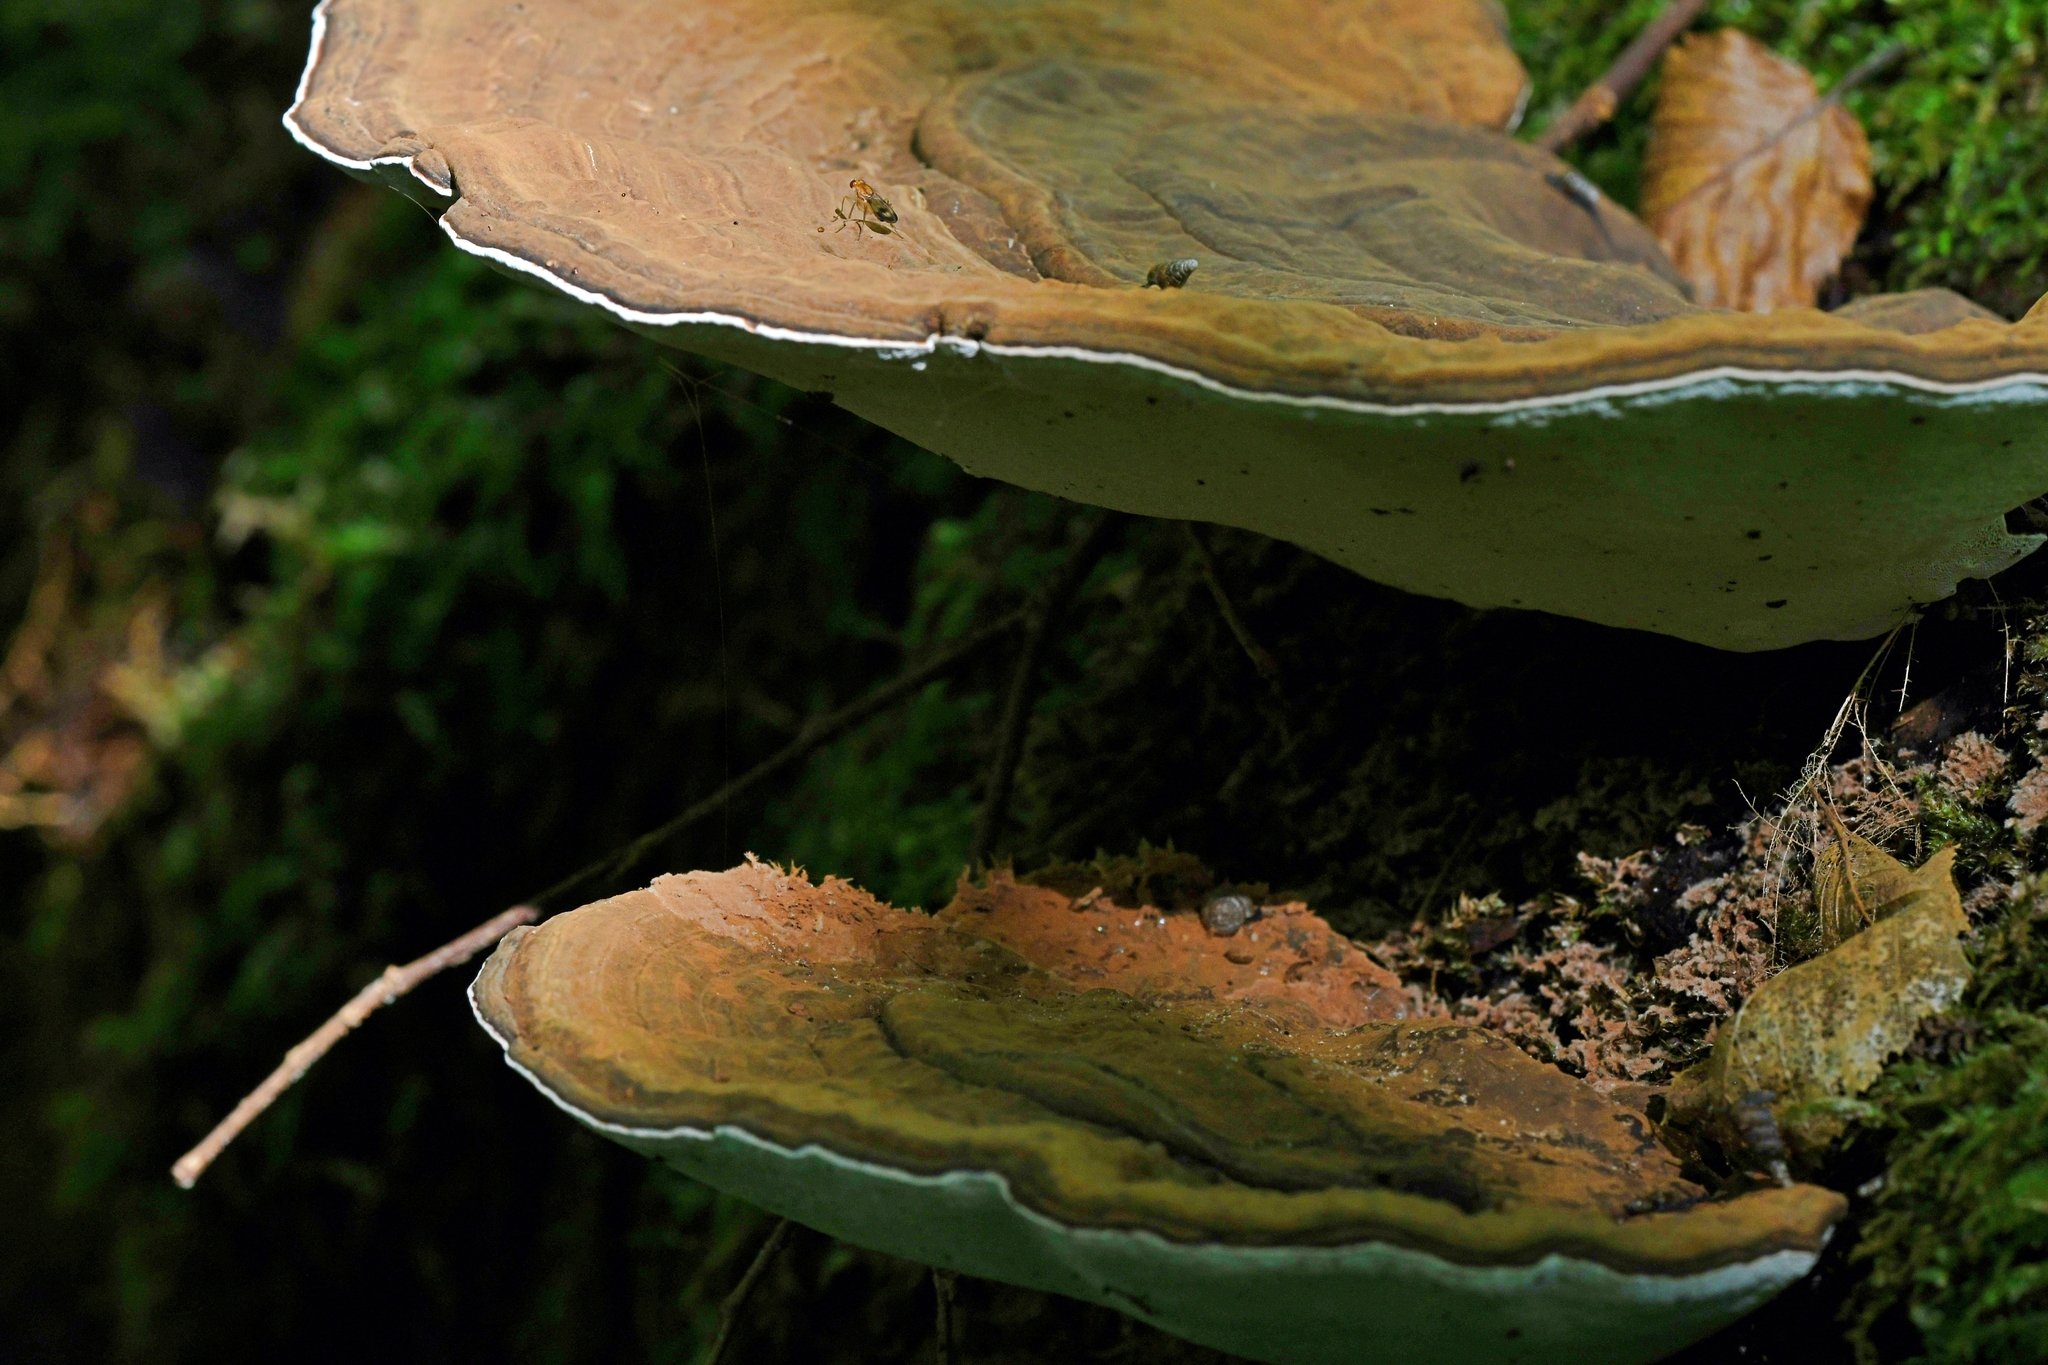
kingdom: Fungi
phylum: Basidiomycota
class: Agaricomycetes
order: Polyporales
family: Polyporaceae
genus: Ganoderma
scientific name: Ganoderma applanatum
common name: Artist's bracket
